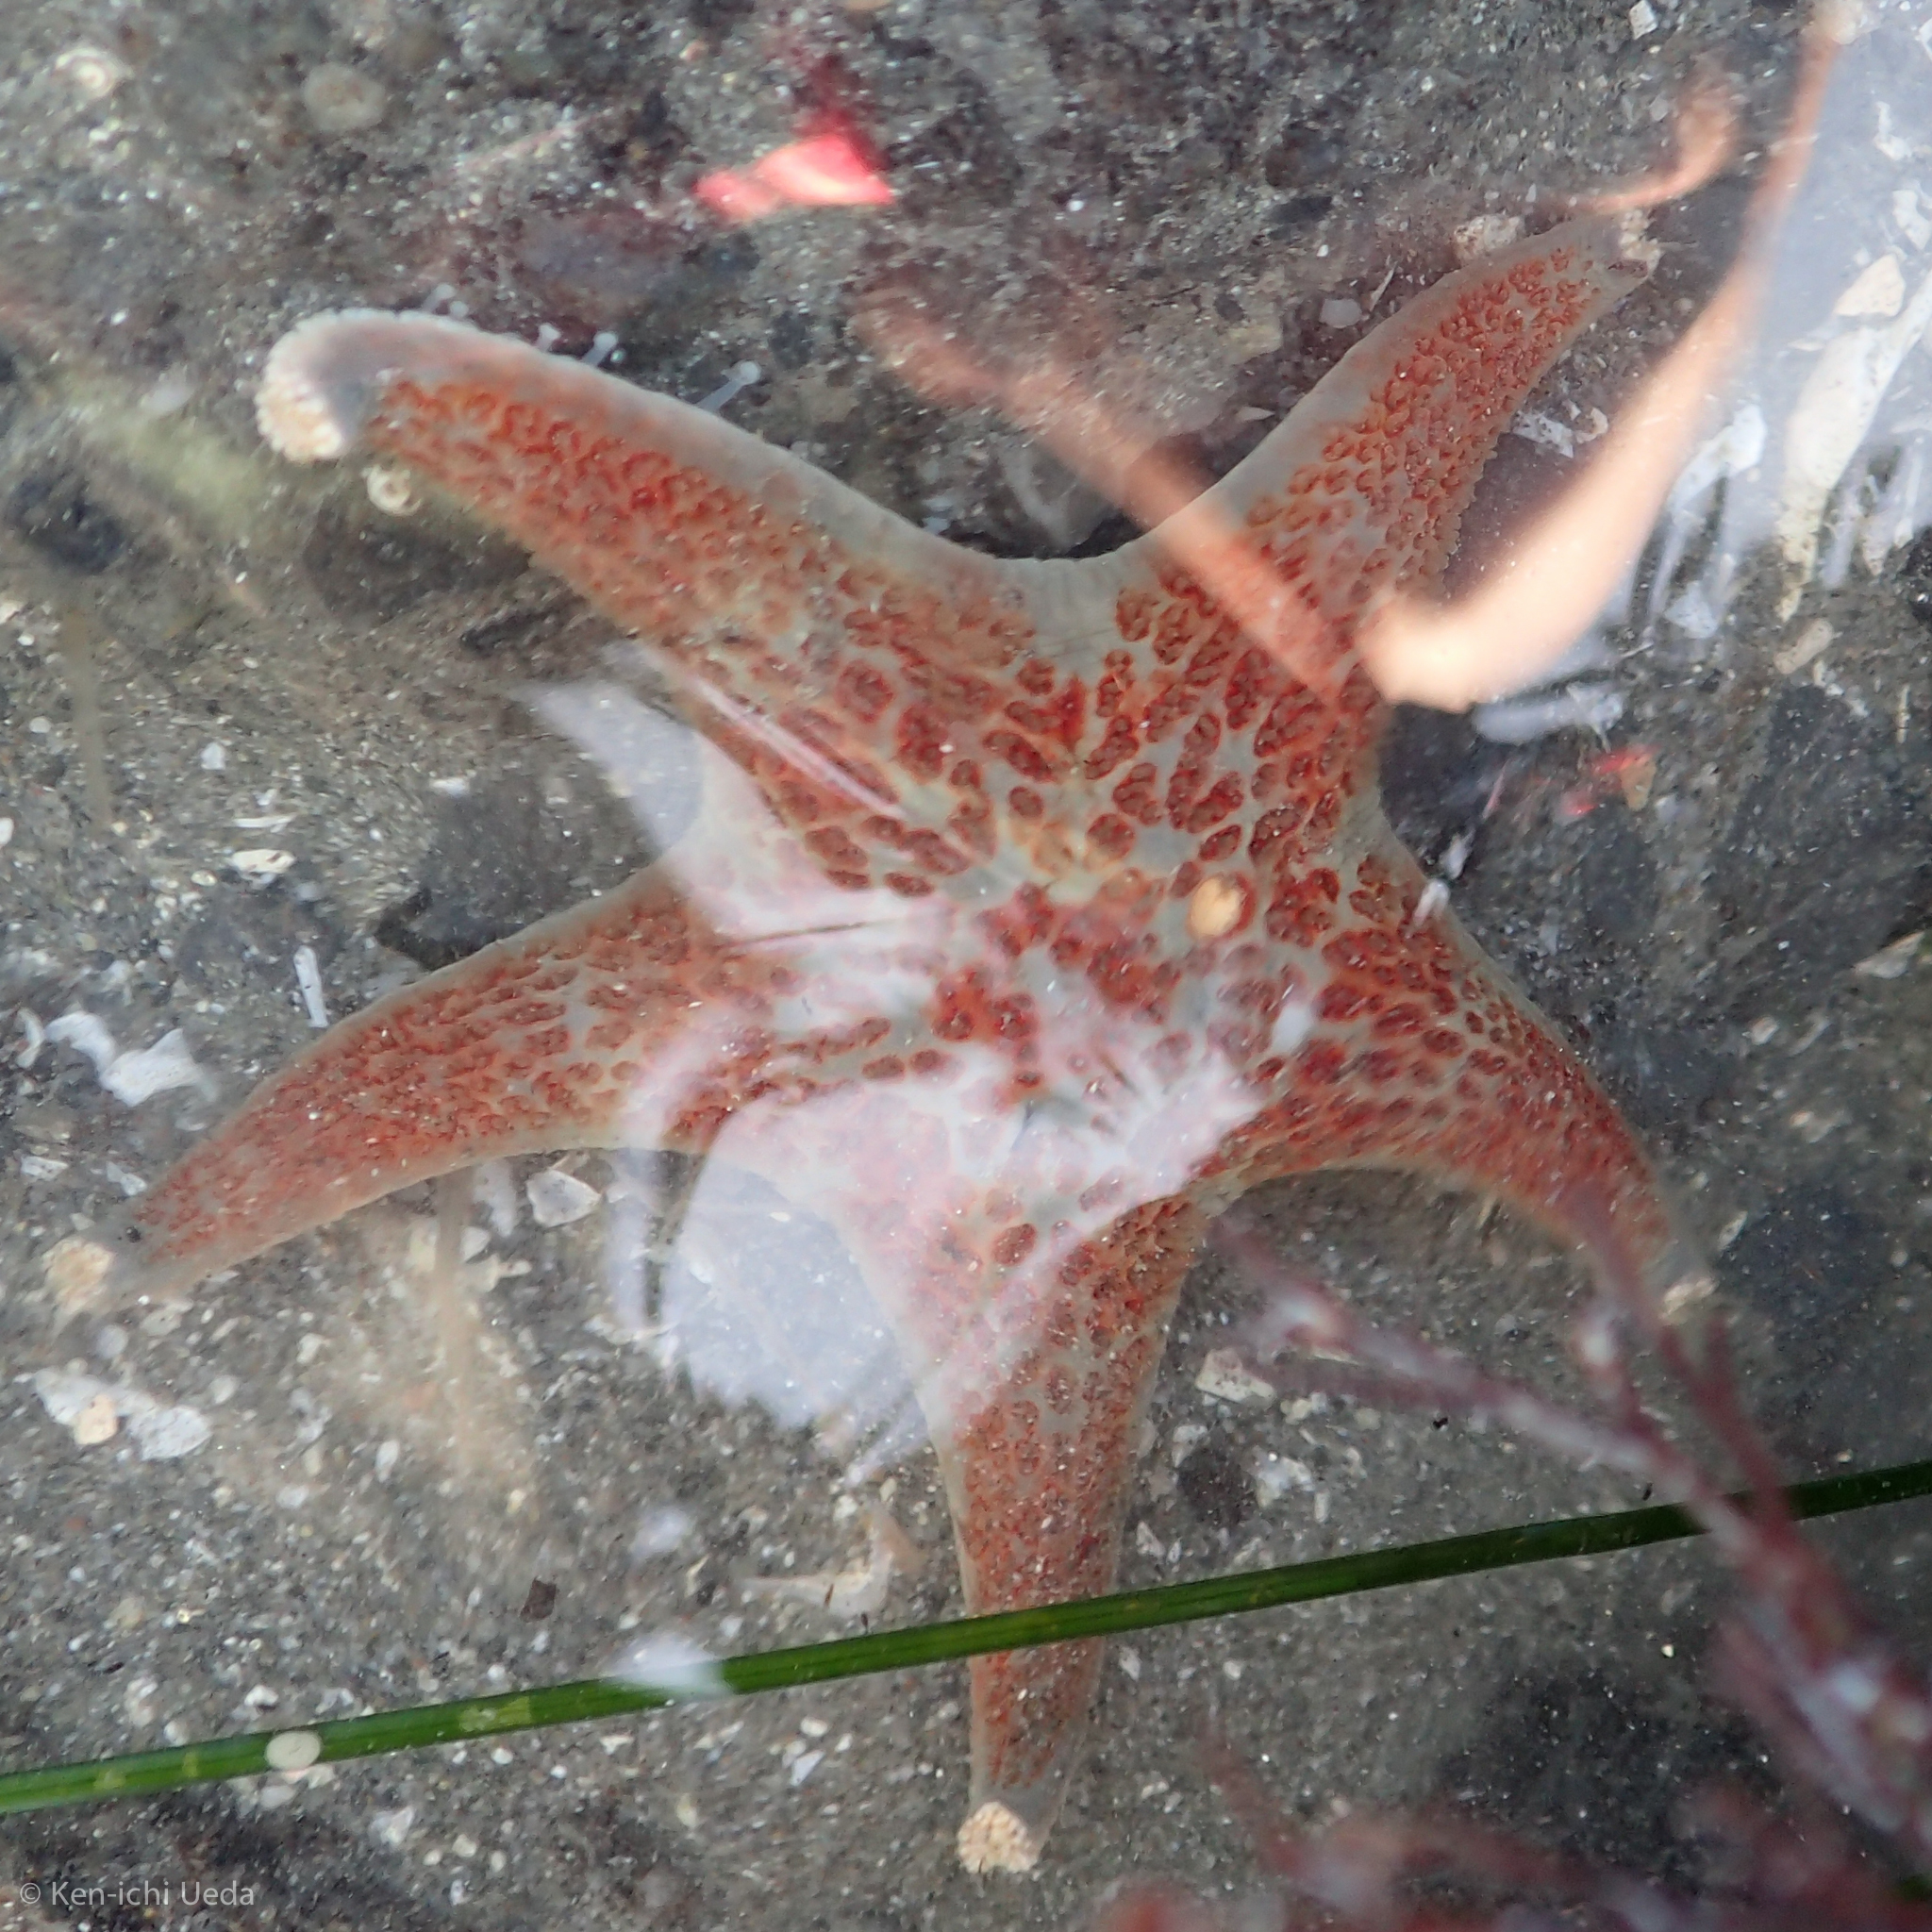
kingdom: Animalia
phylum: Echinodermata
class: Asteroidea
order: Valvatida
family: Asteropseidae
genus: Dermasterias
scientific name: Dermasterias imbricata
